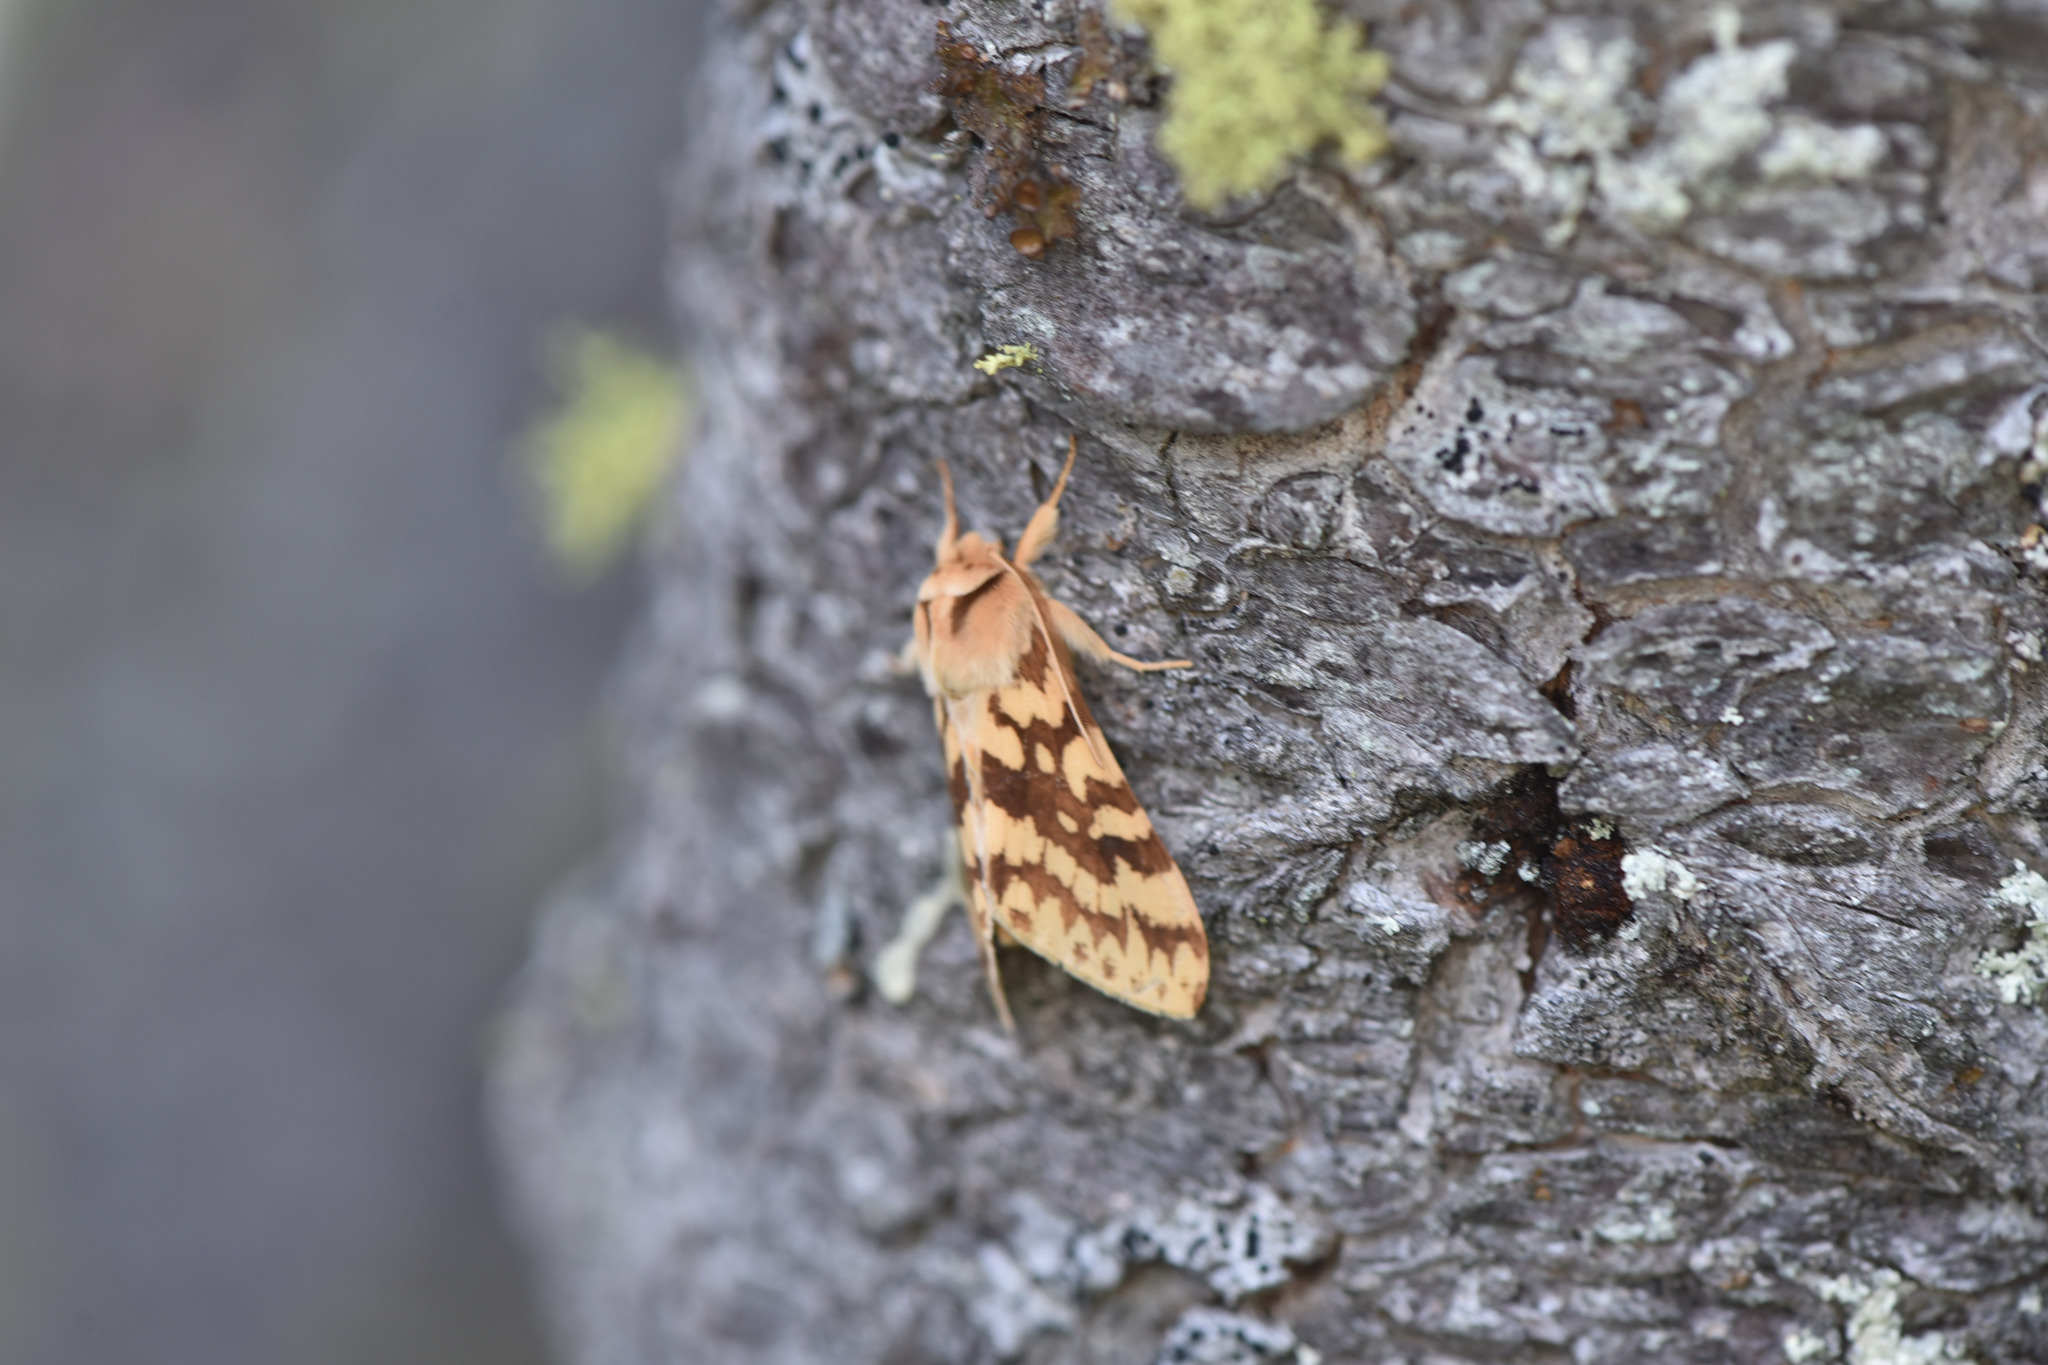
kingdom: Animalia
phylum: Arthropoda
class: Insecta
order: Lepidoptera
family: Erebidae
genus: Lophocampa
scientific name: Lophocampa maculata
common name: Spotted tussock moth
